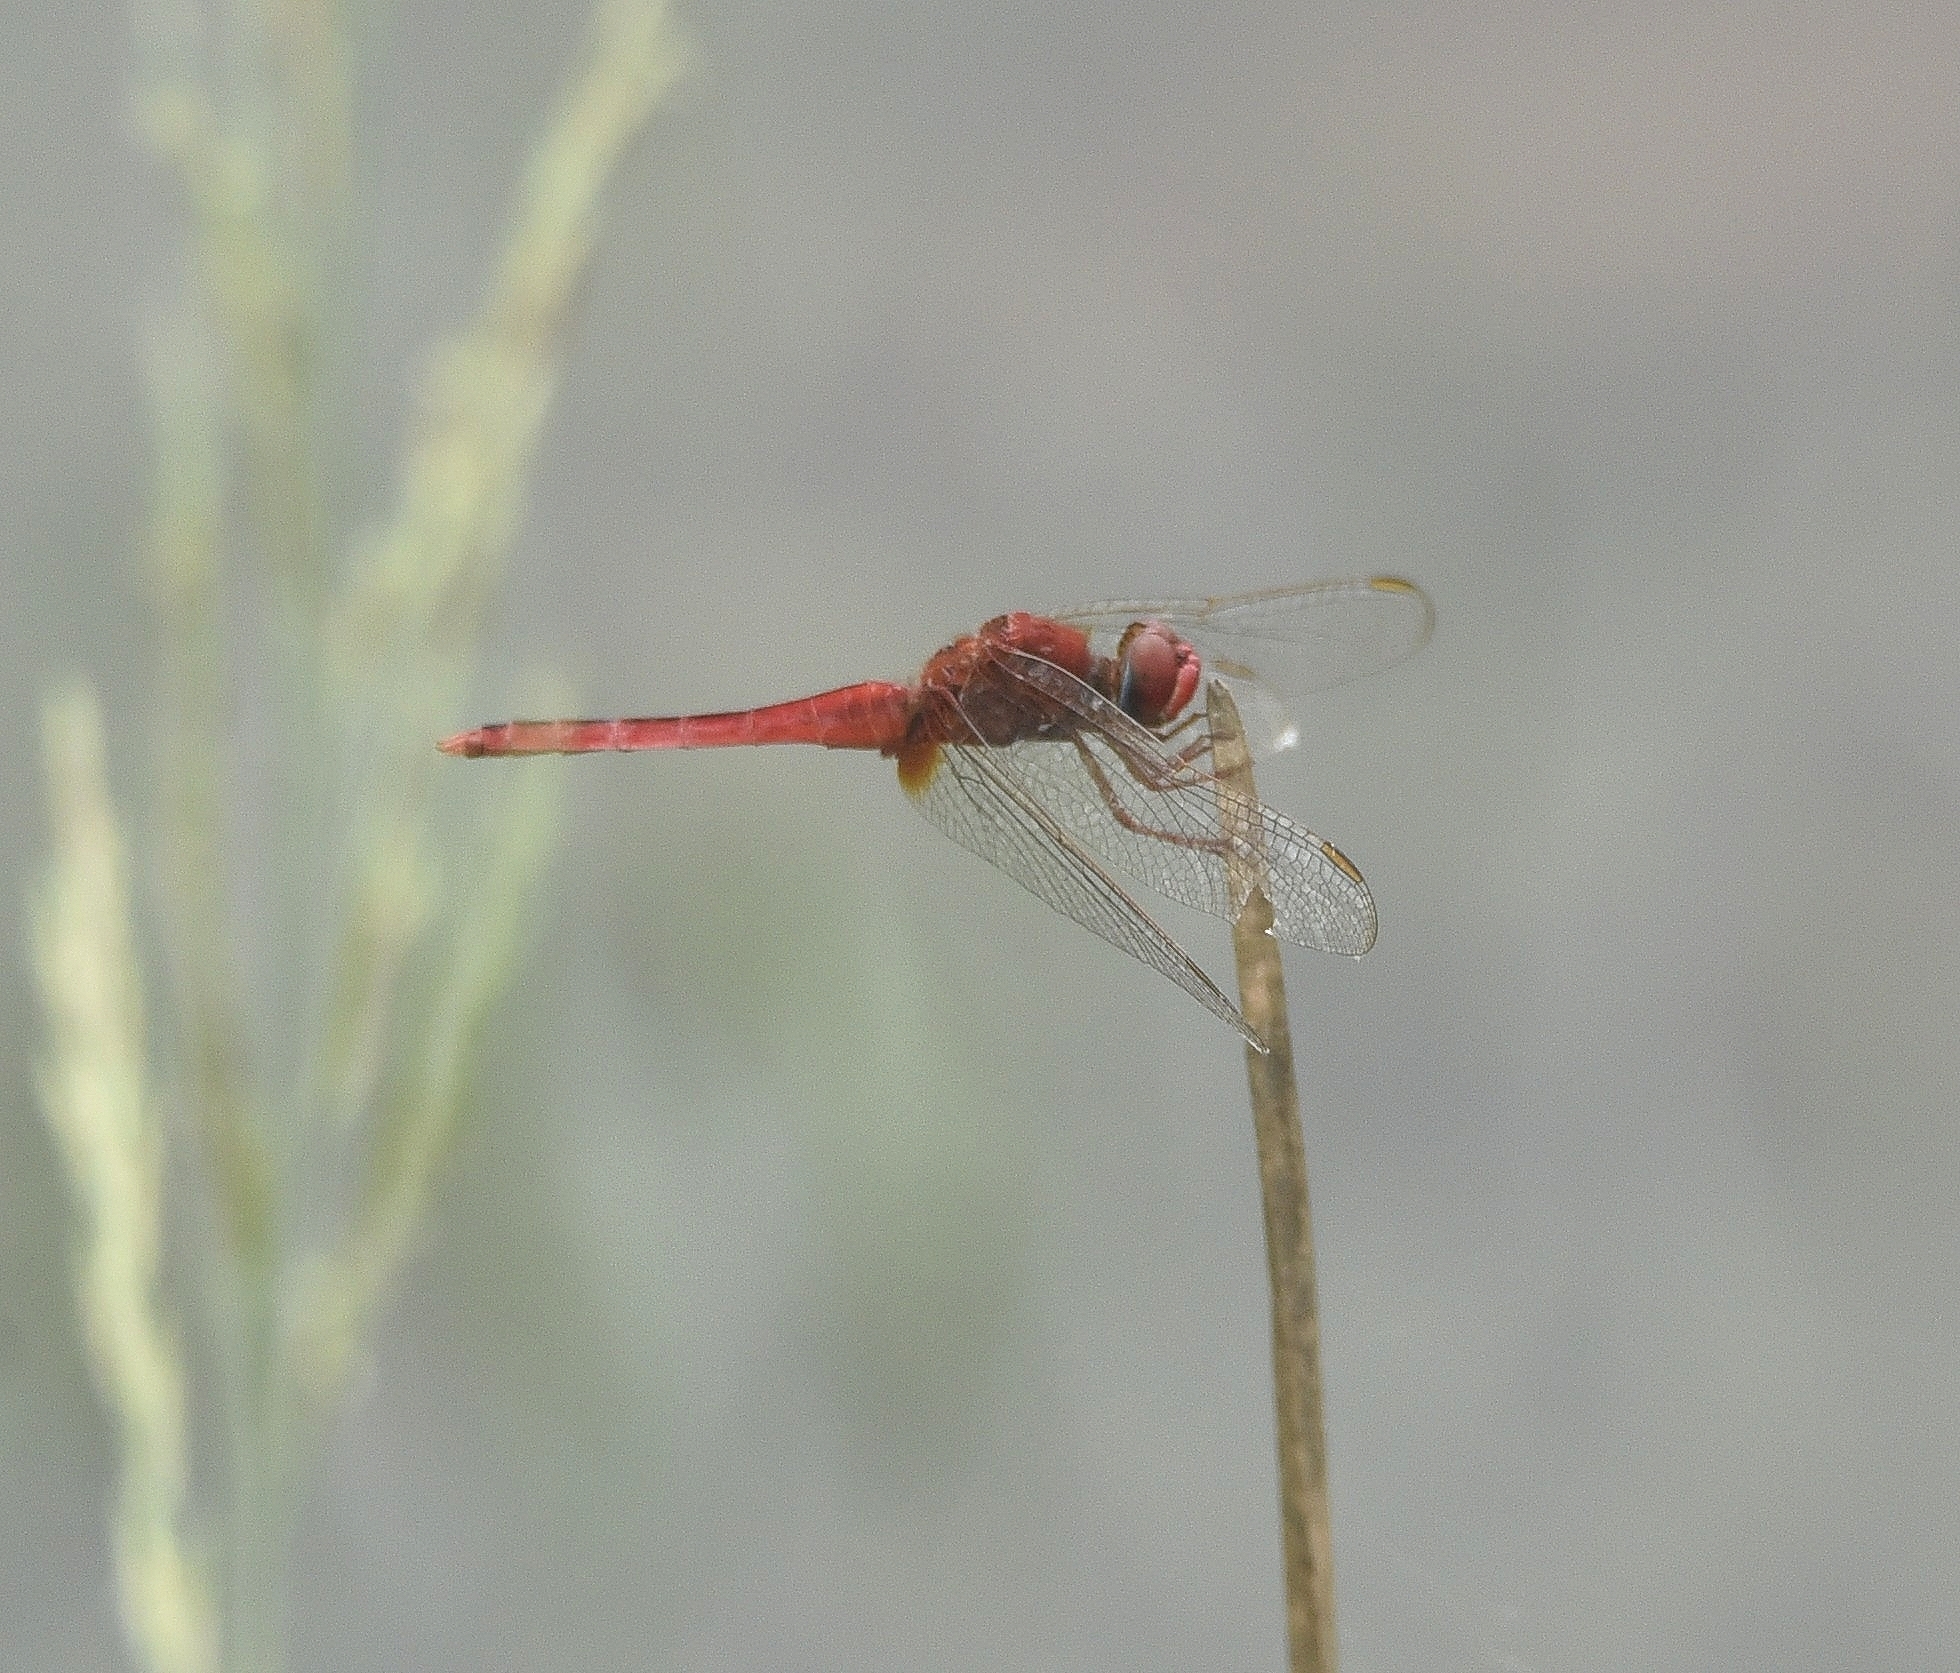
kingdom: Animalia
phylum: Arthropoda
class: Insecta
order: Odonata
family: Libellulidae
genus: Crocothemis
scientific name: Crocothemis servilia
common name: Scarlet skimmer
